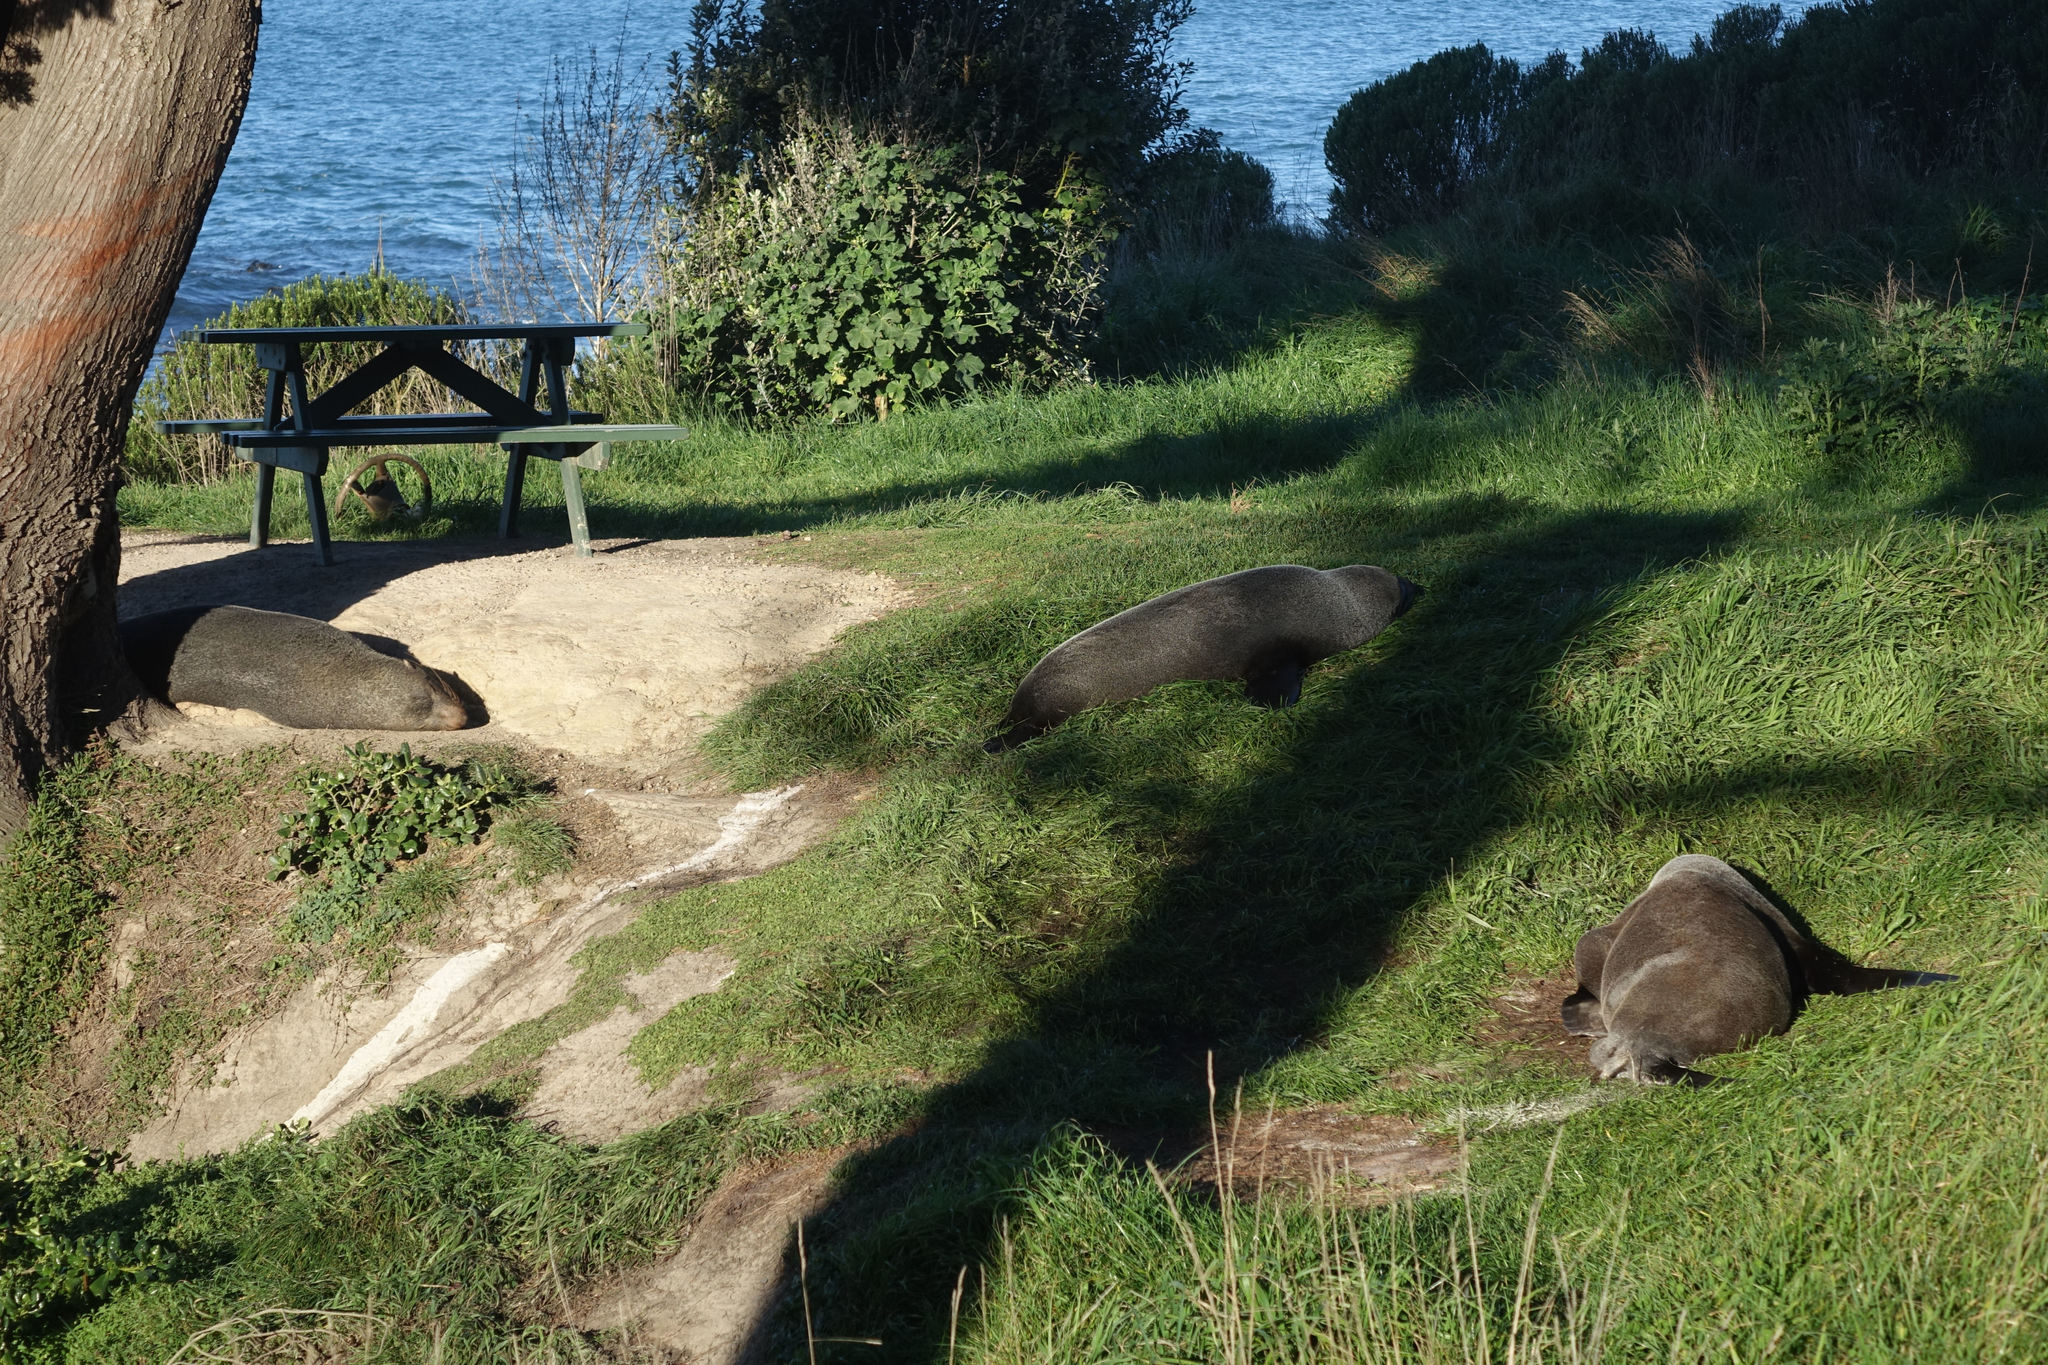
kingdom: Animalia
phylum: Chordata
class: Mammalia
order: Carnivora
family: Otariidae
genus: Arctocephalus
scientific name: Arctocephalus forsteri
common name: New zealand fur seal
